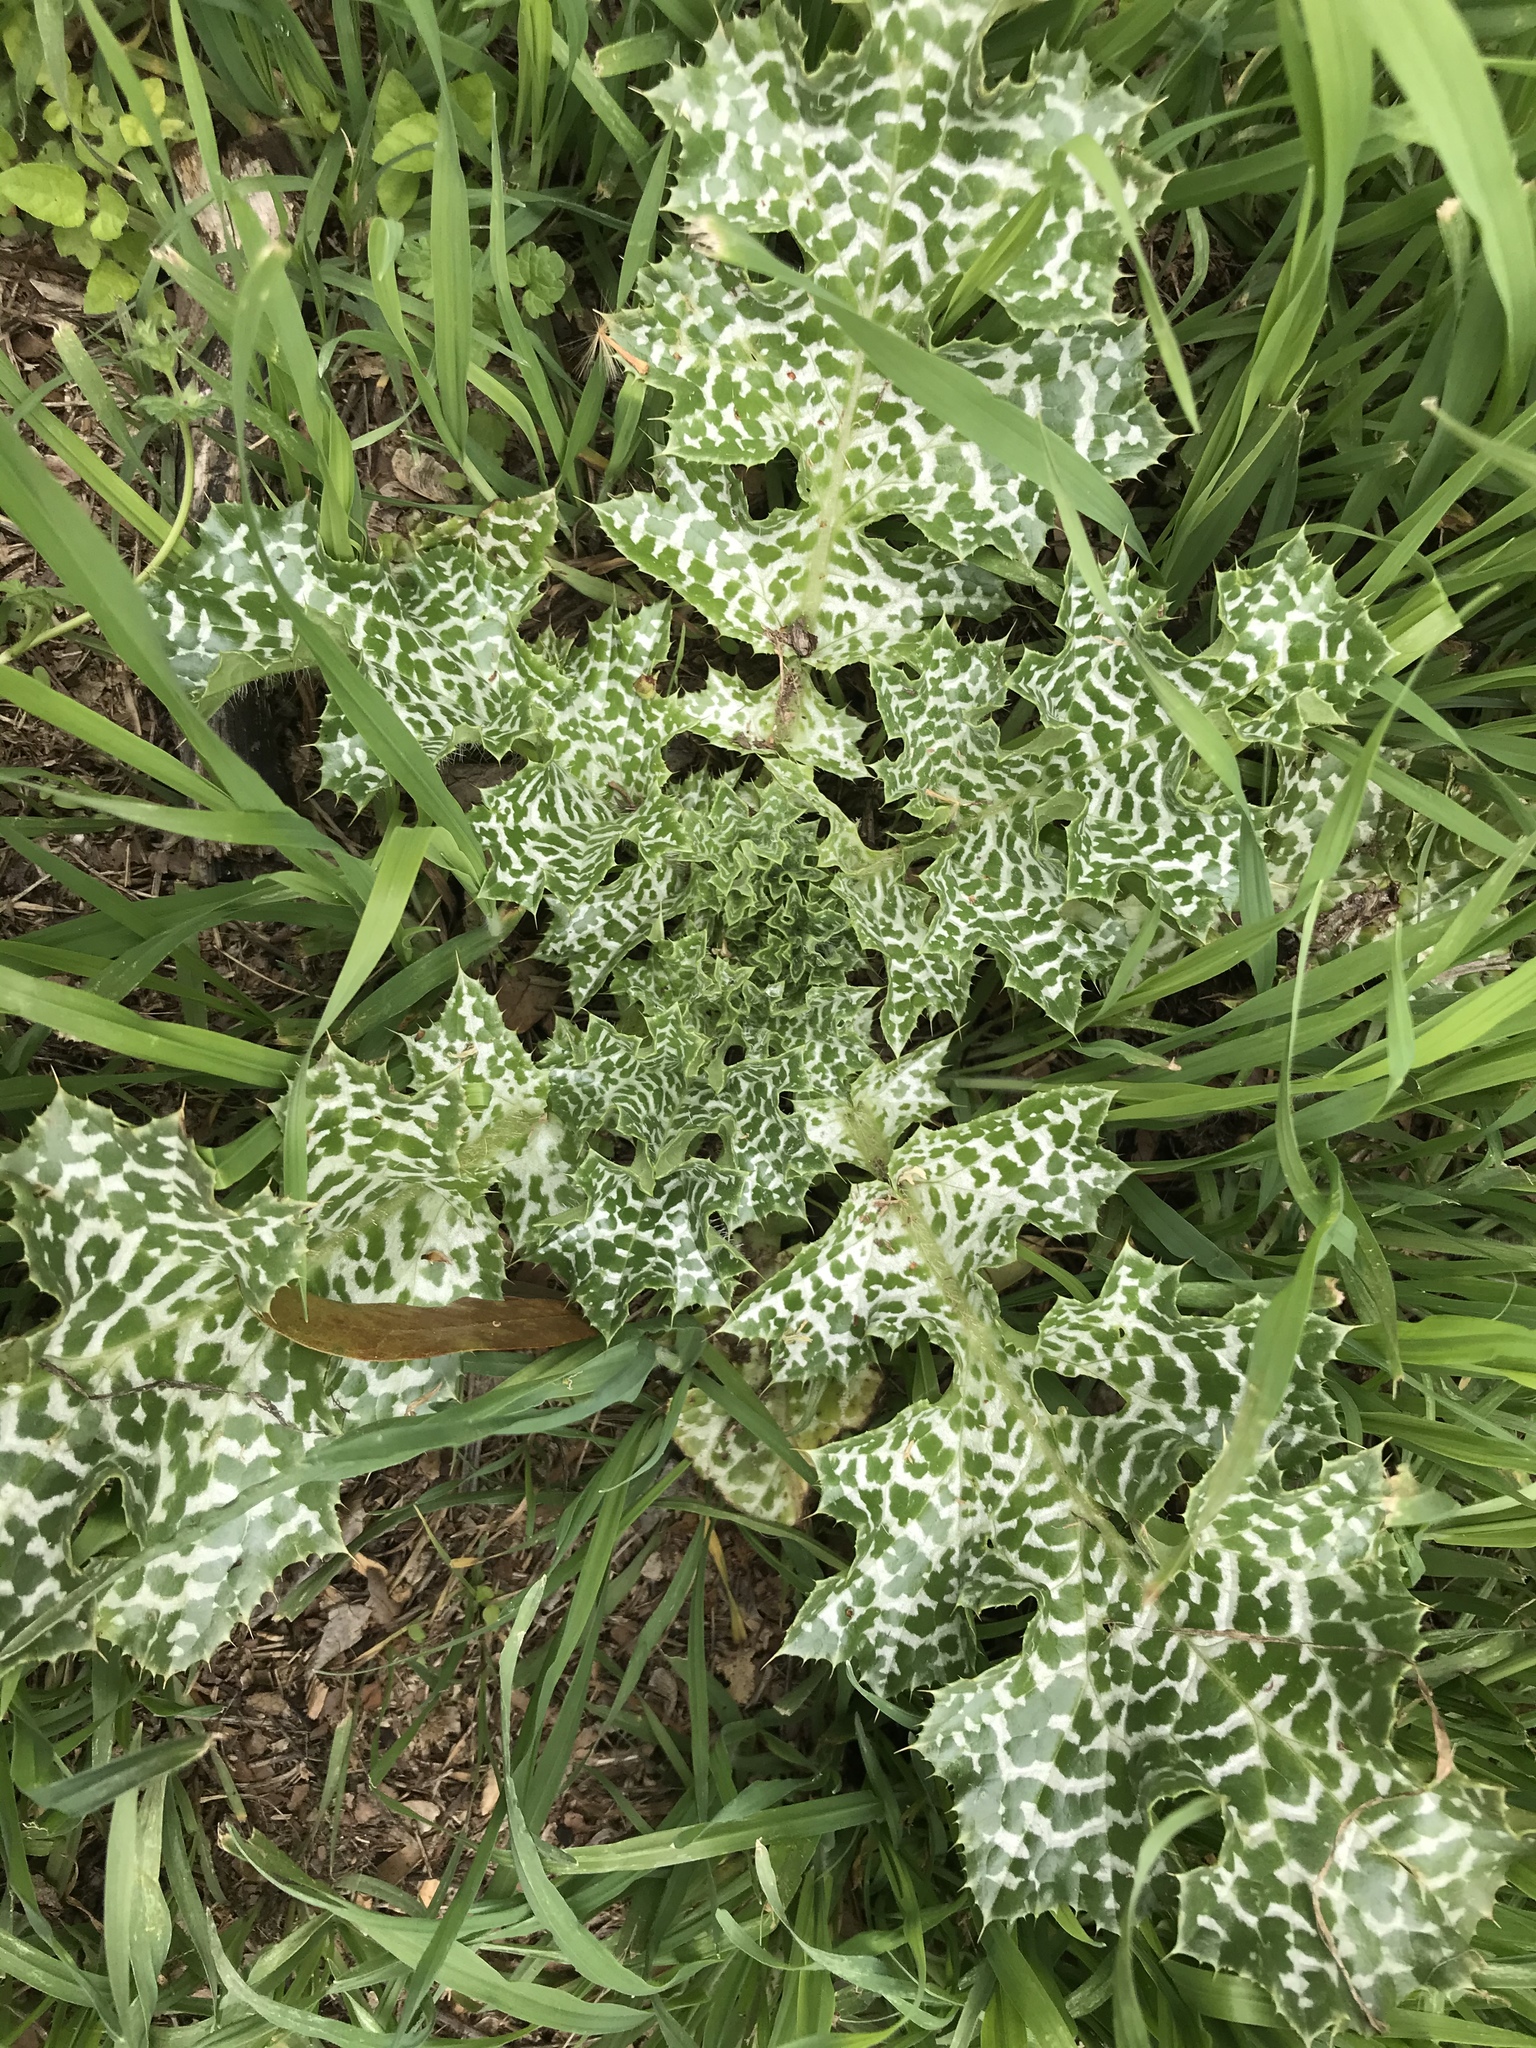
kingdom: Plantae
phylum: Tracheophyta
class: Magnoliopsida
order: Asterales
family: Asteraceae
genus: Silybum
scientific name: Silybum marianum
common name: Milk thistle
